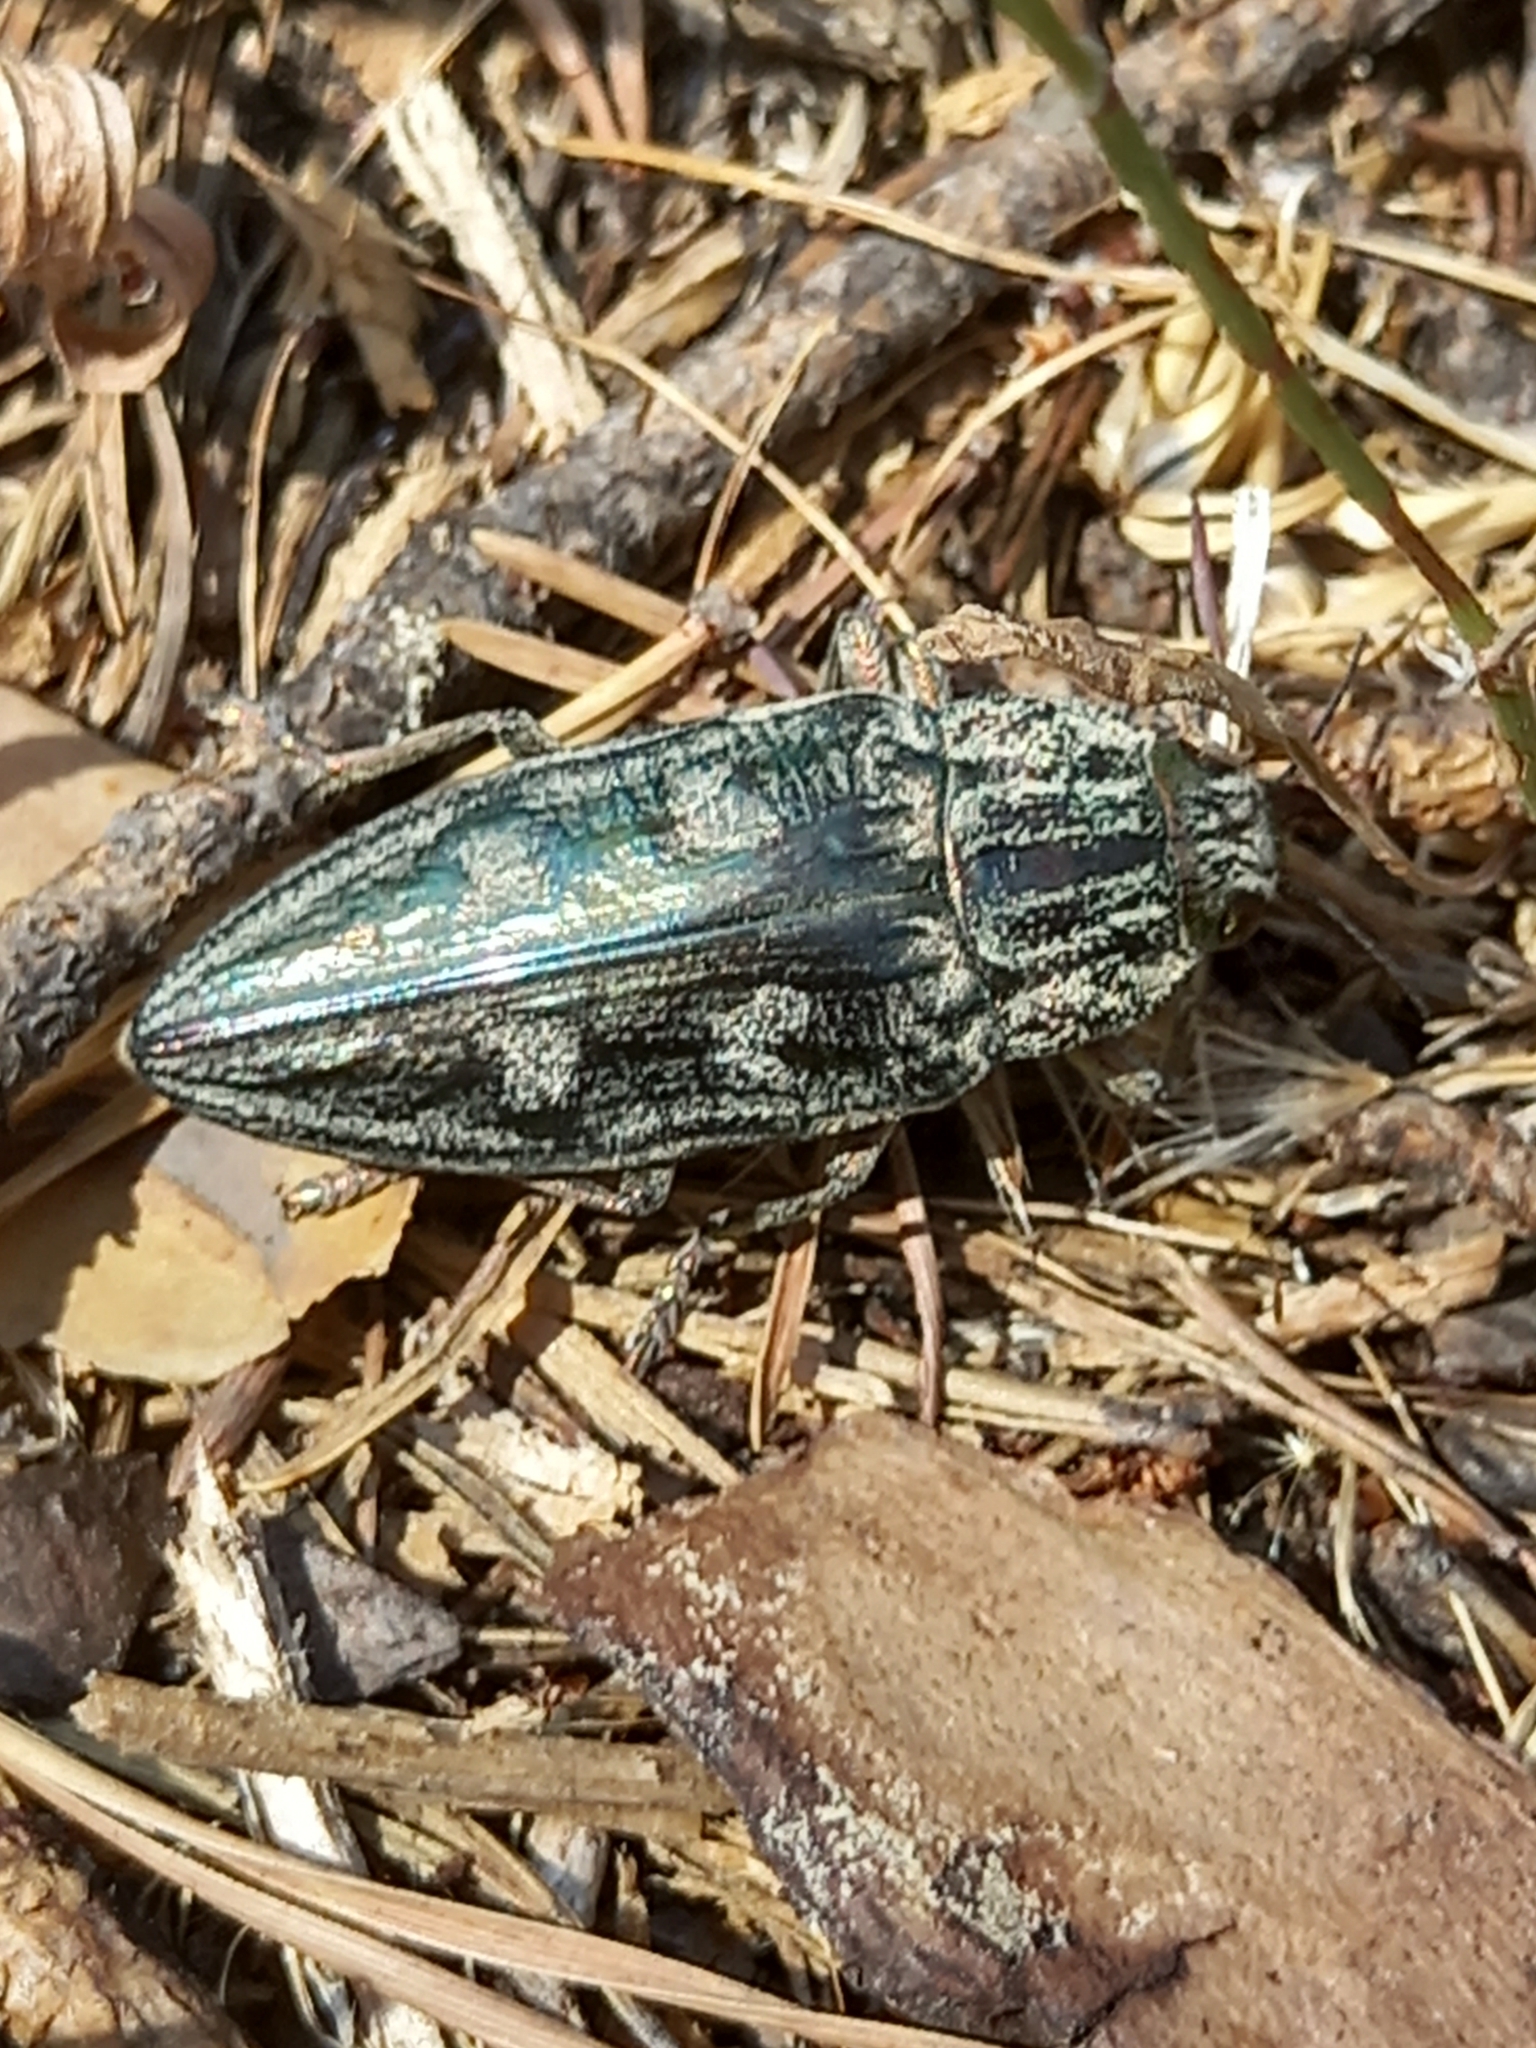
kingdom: Animalia
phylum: Arthropoda
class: Insecta
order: Coleoptera
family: Buprestidae
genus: Chalcophora
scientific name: Chalcophora massiliensis
